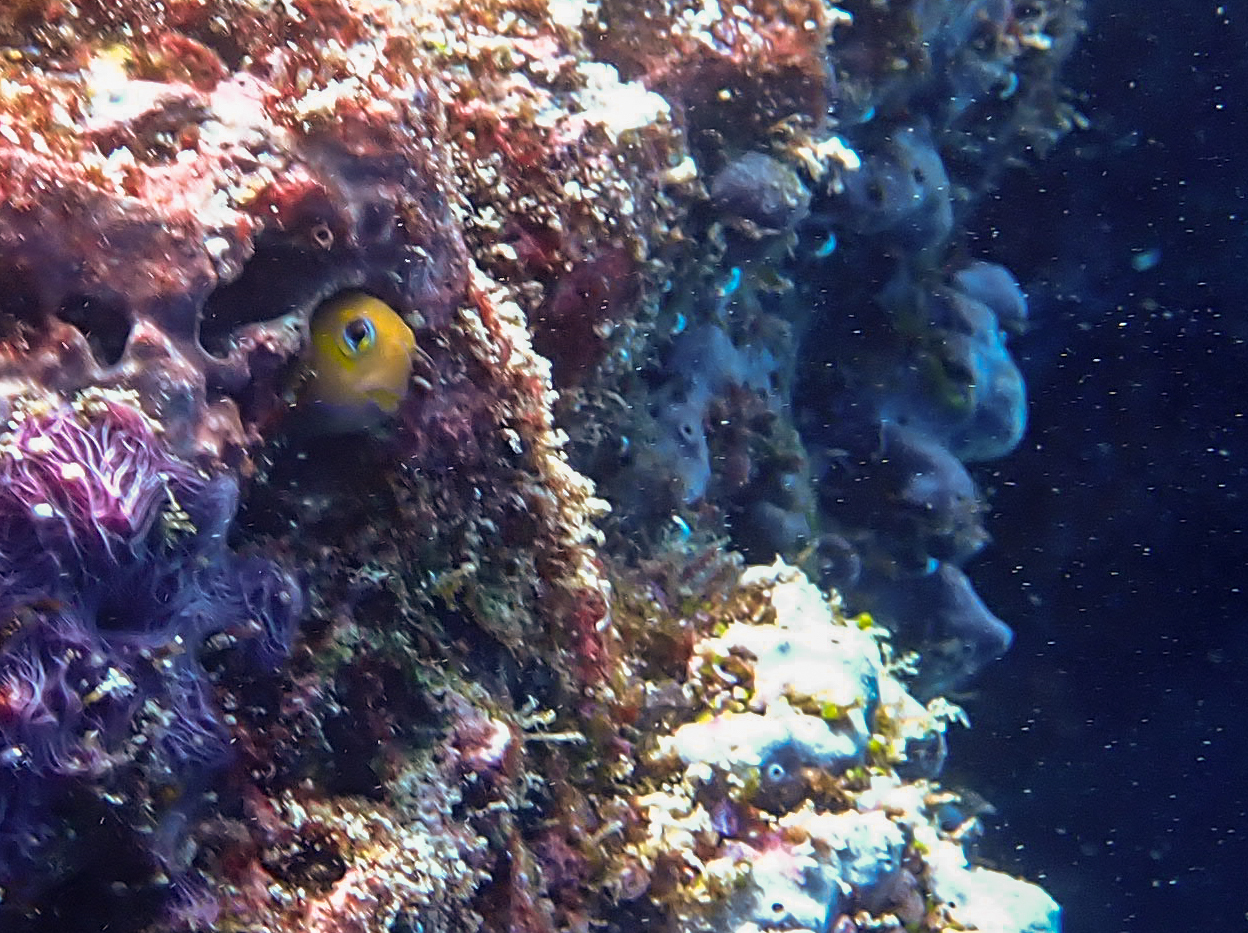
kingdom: Animalia
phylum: Chordata
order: Perciformes
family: Blenniidae
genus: Ecsenius
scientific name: Ecsenius midas
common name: Golden blenny
